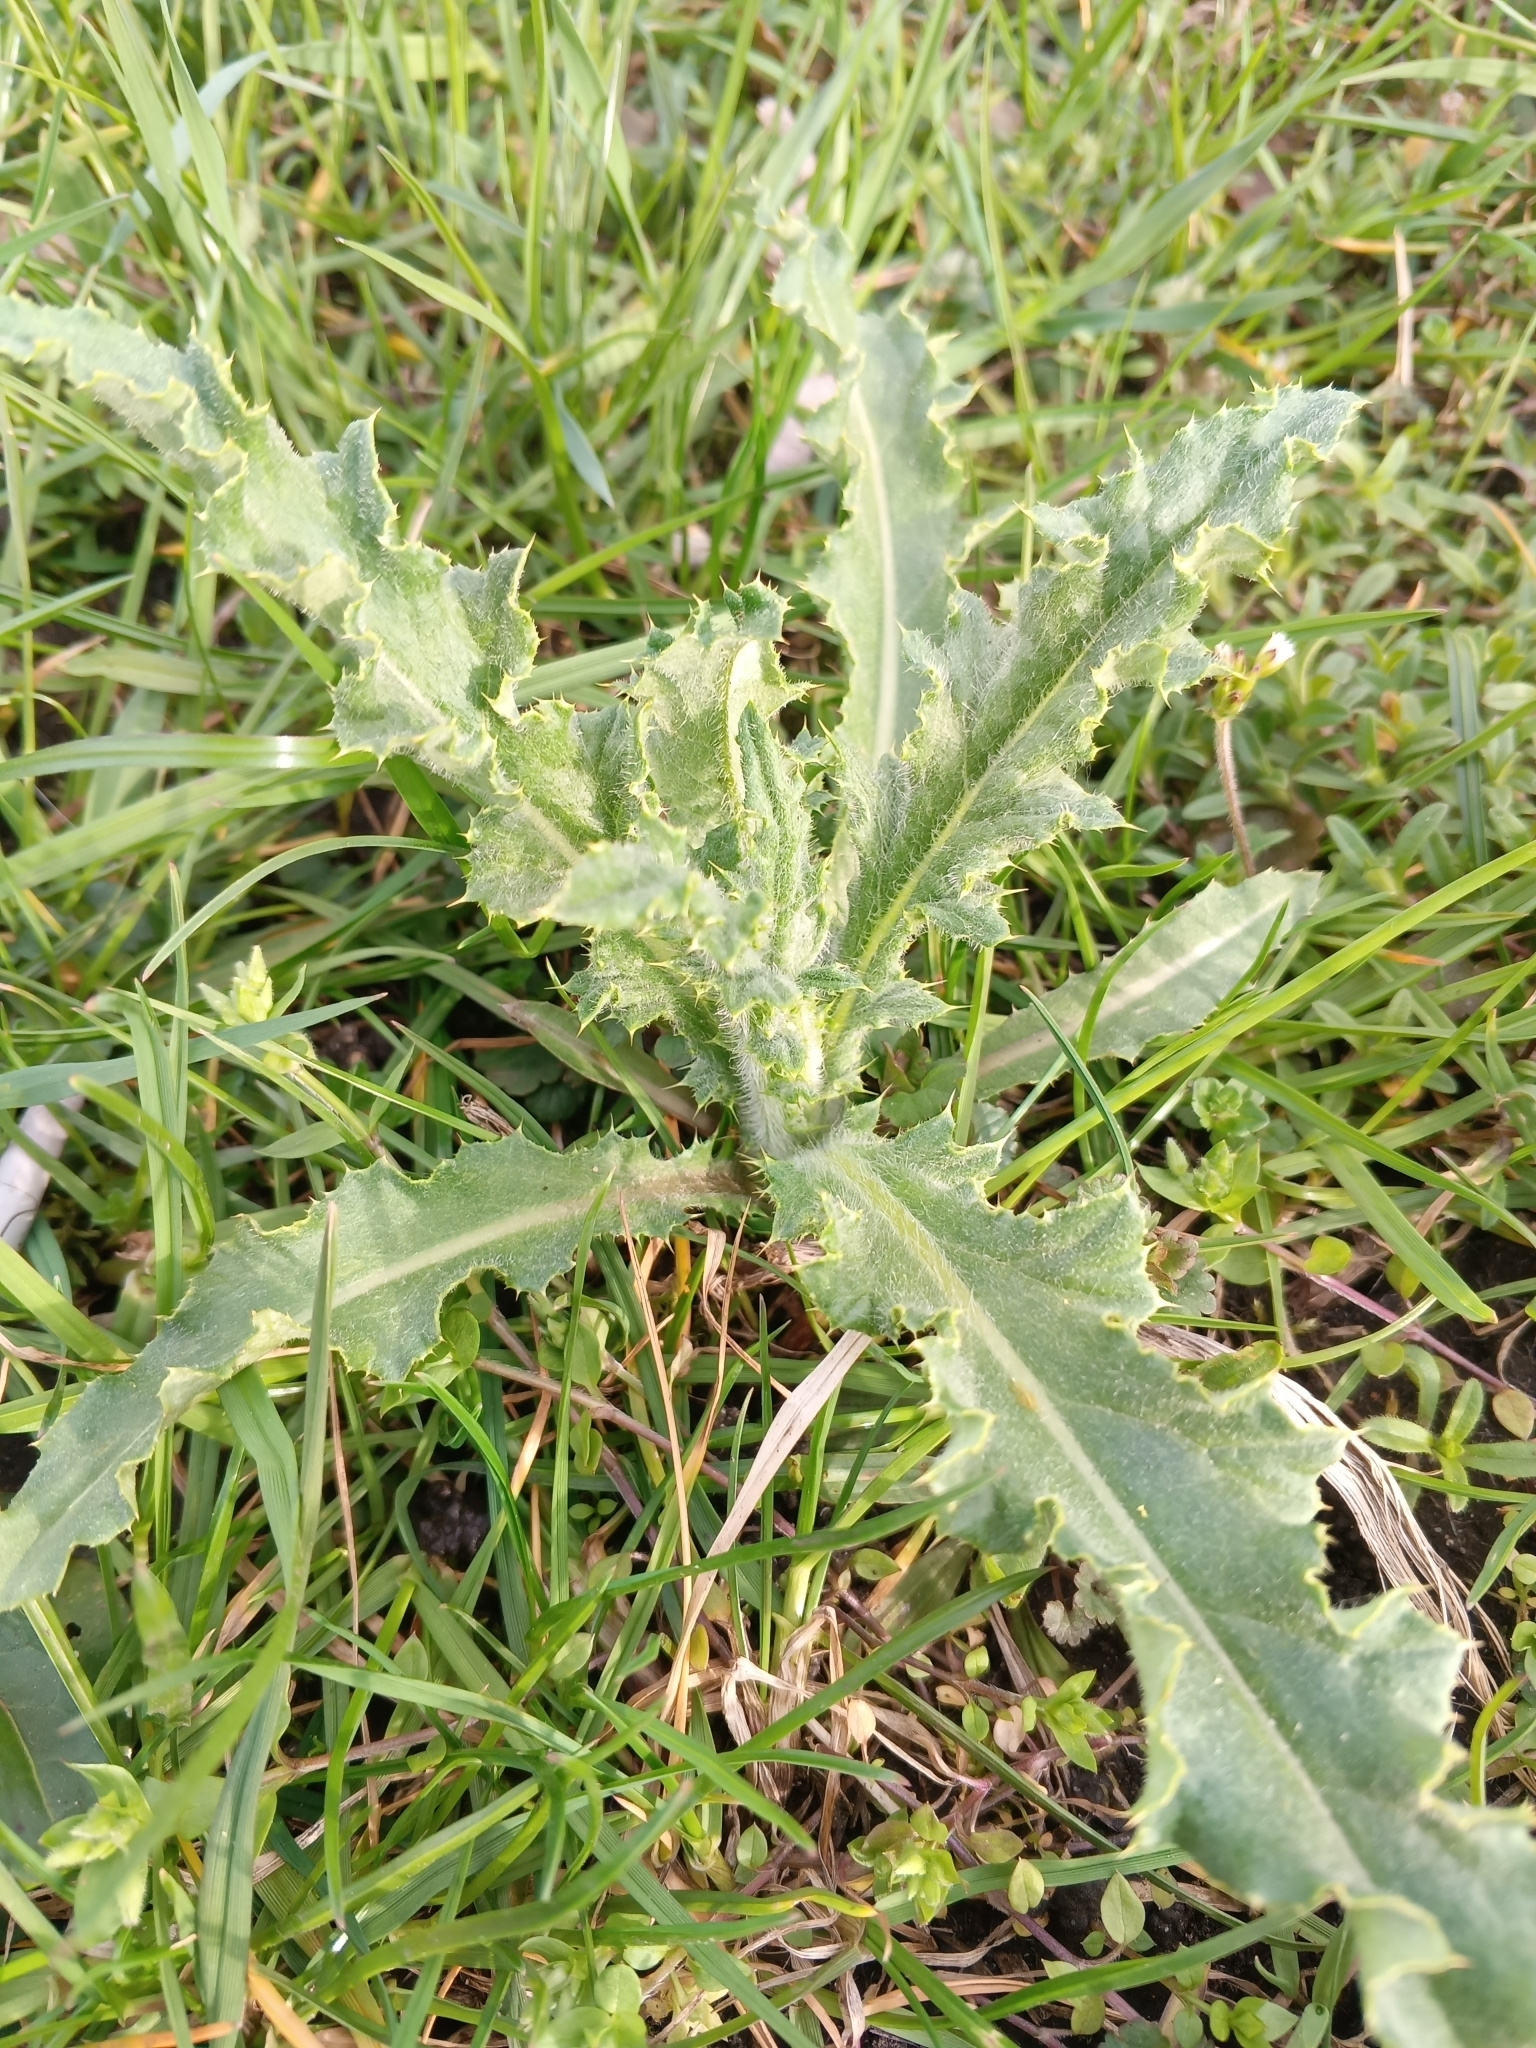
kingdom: Plantae
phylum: Tracheophyta
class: Magnoliopsida
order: Asterales
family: Asteraceae
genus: Cirsium
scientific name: Cirsium arvense
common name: Creeping thistle
